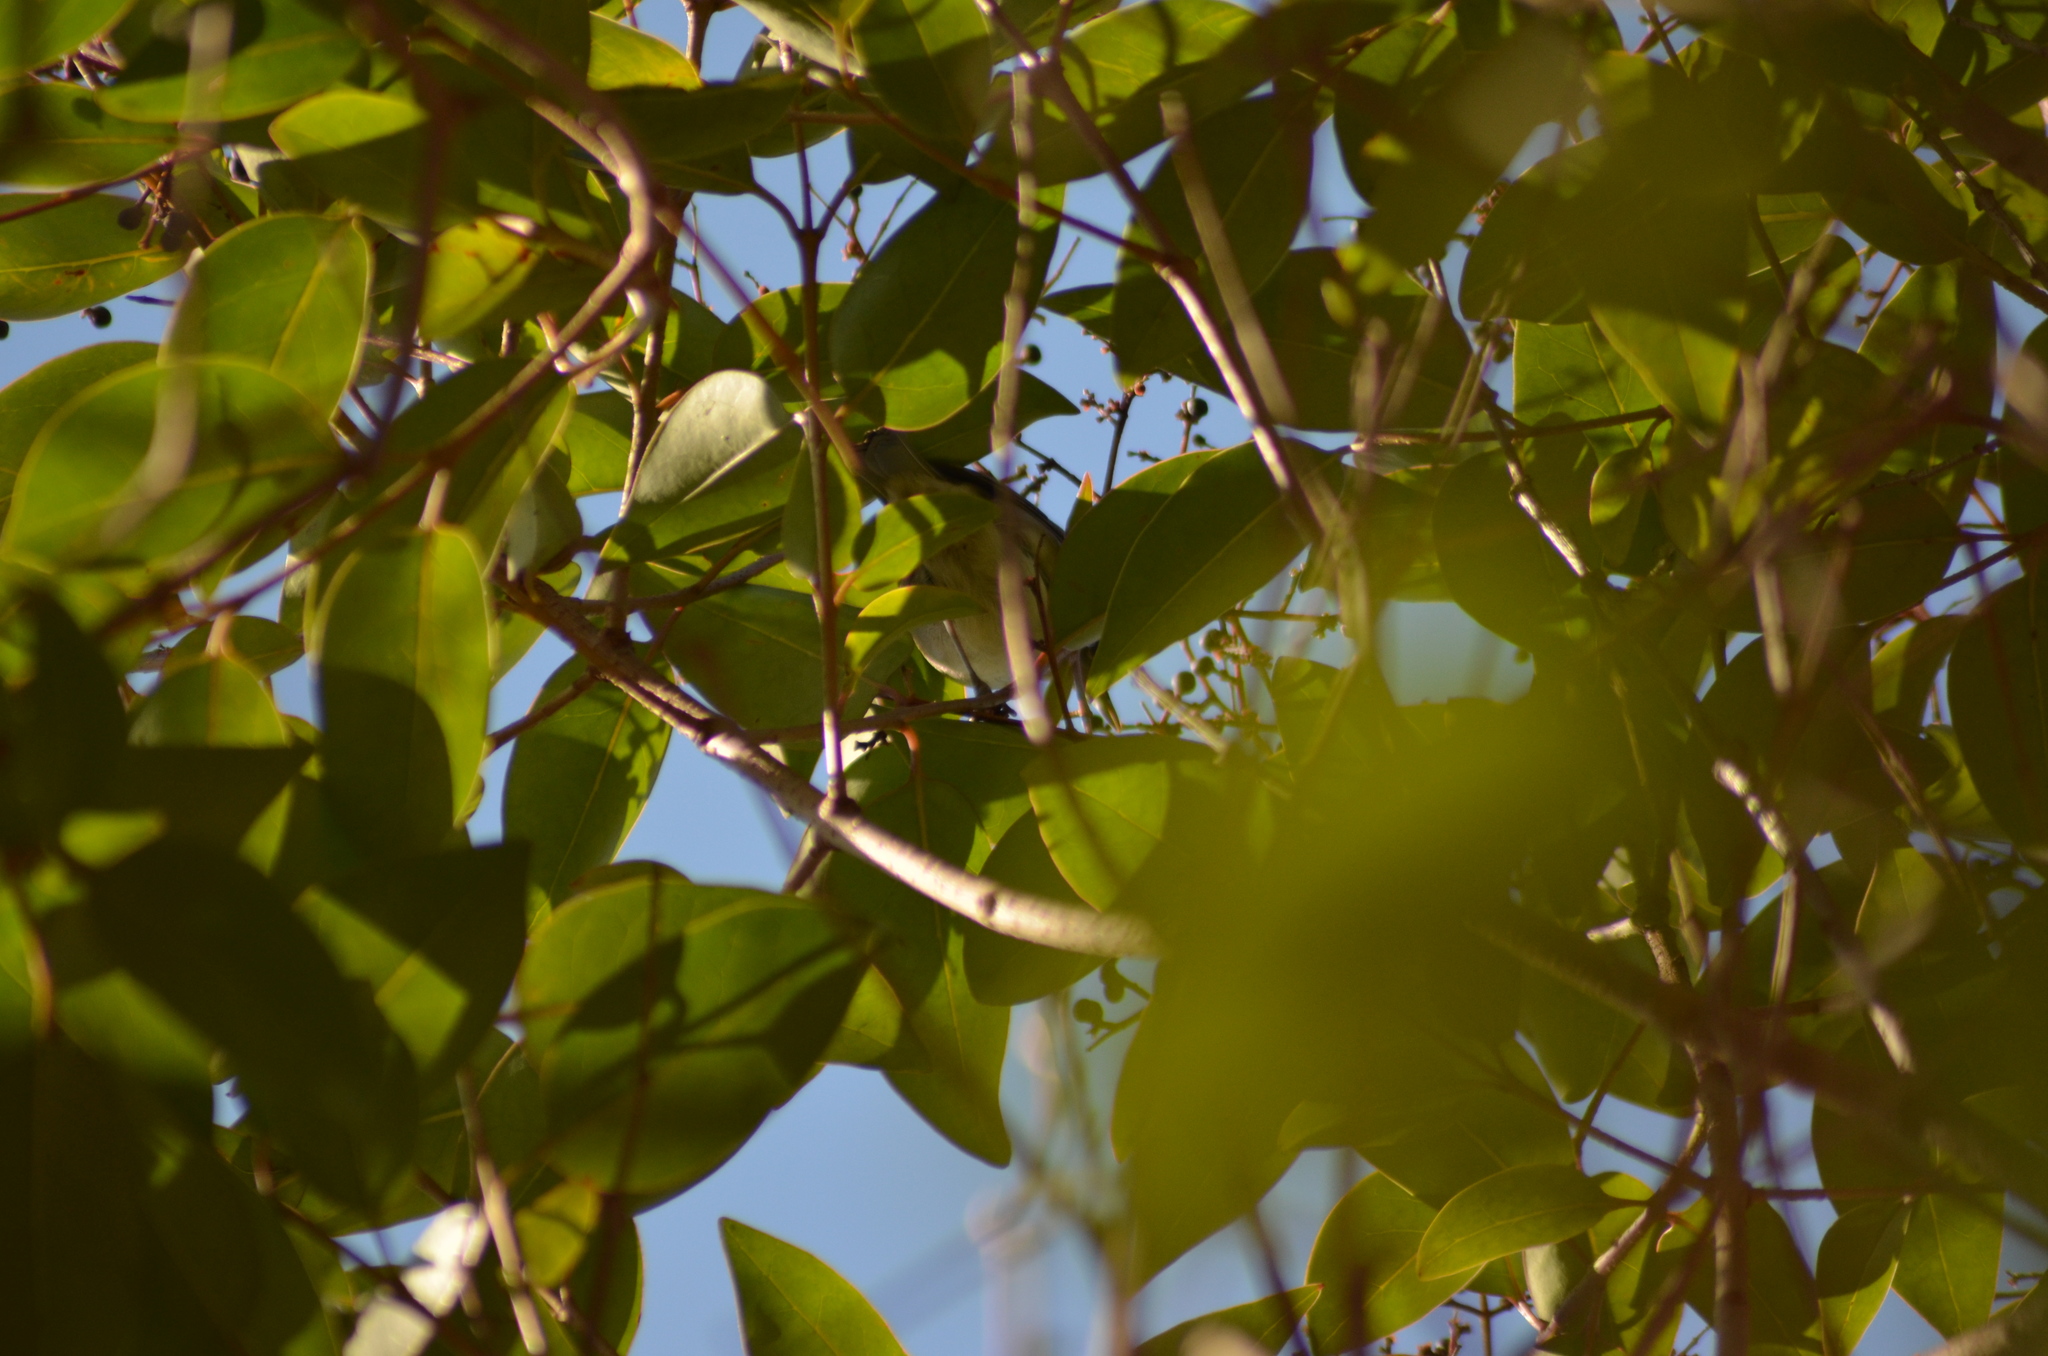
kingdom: Animalia
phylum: Chordata
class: Aves
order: Passeriformes
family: Sylviidae
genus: Sylvia
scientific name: Sylvia atricapilla
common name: Eurasian blackcap
